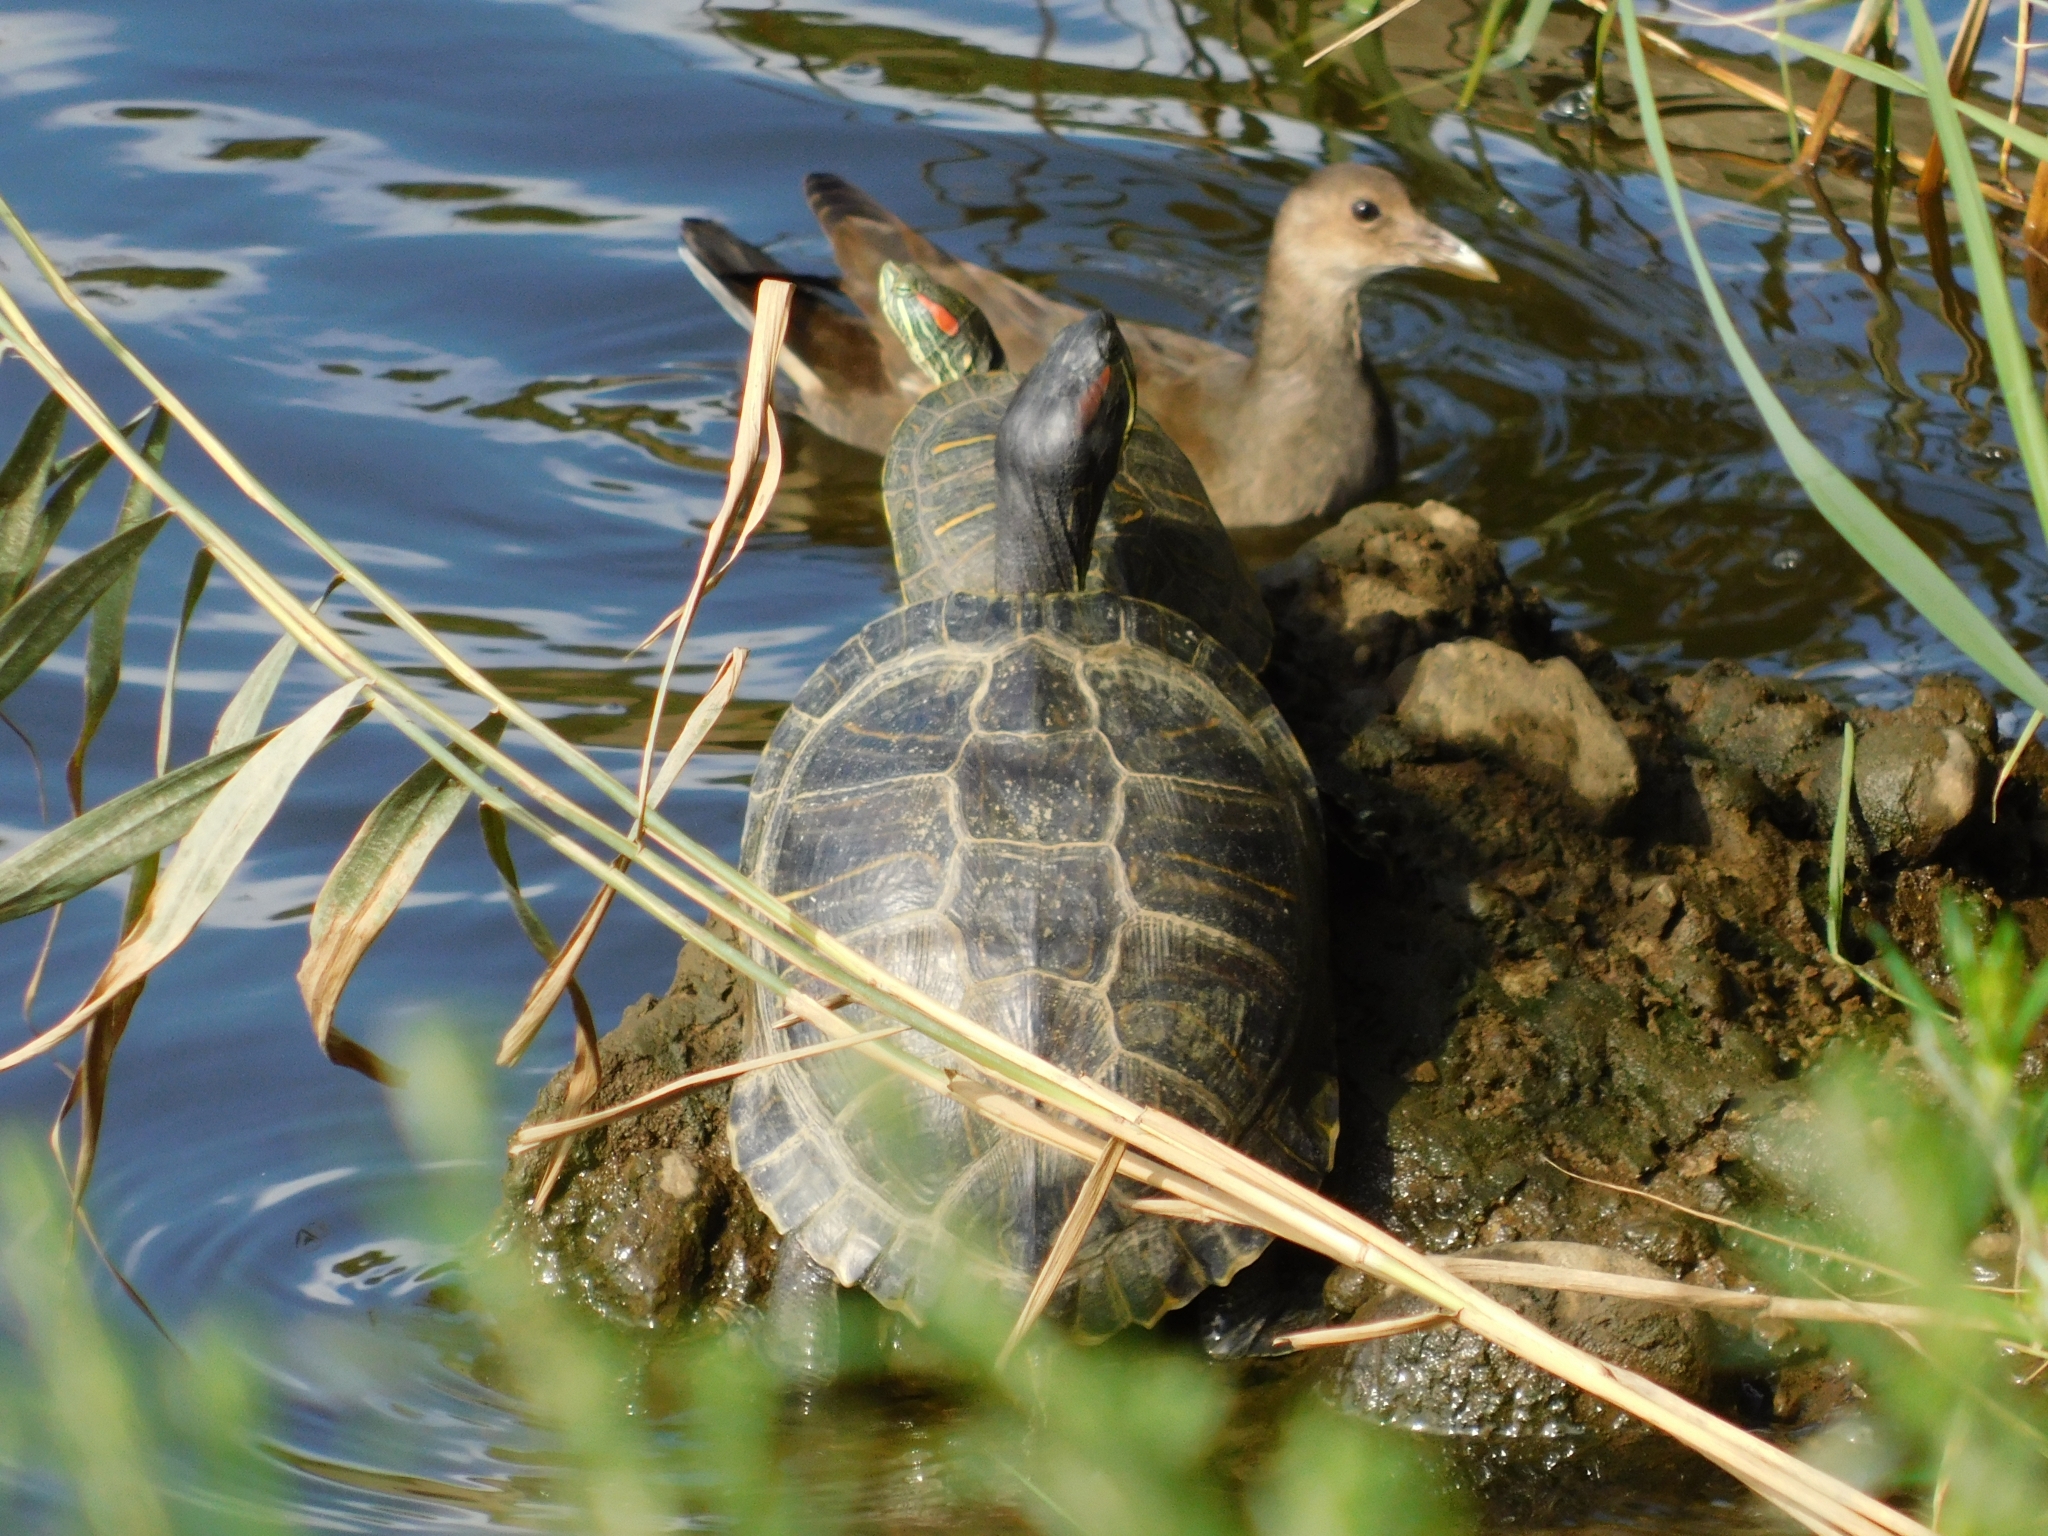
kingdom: Animalia
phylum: Chordata
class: Aves
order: Gruiformes
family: Rallidae
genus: Gallinula
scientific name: Gallinula chloropus
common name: Common moorhen
